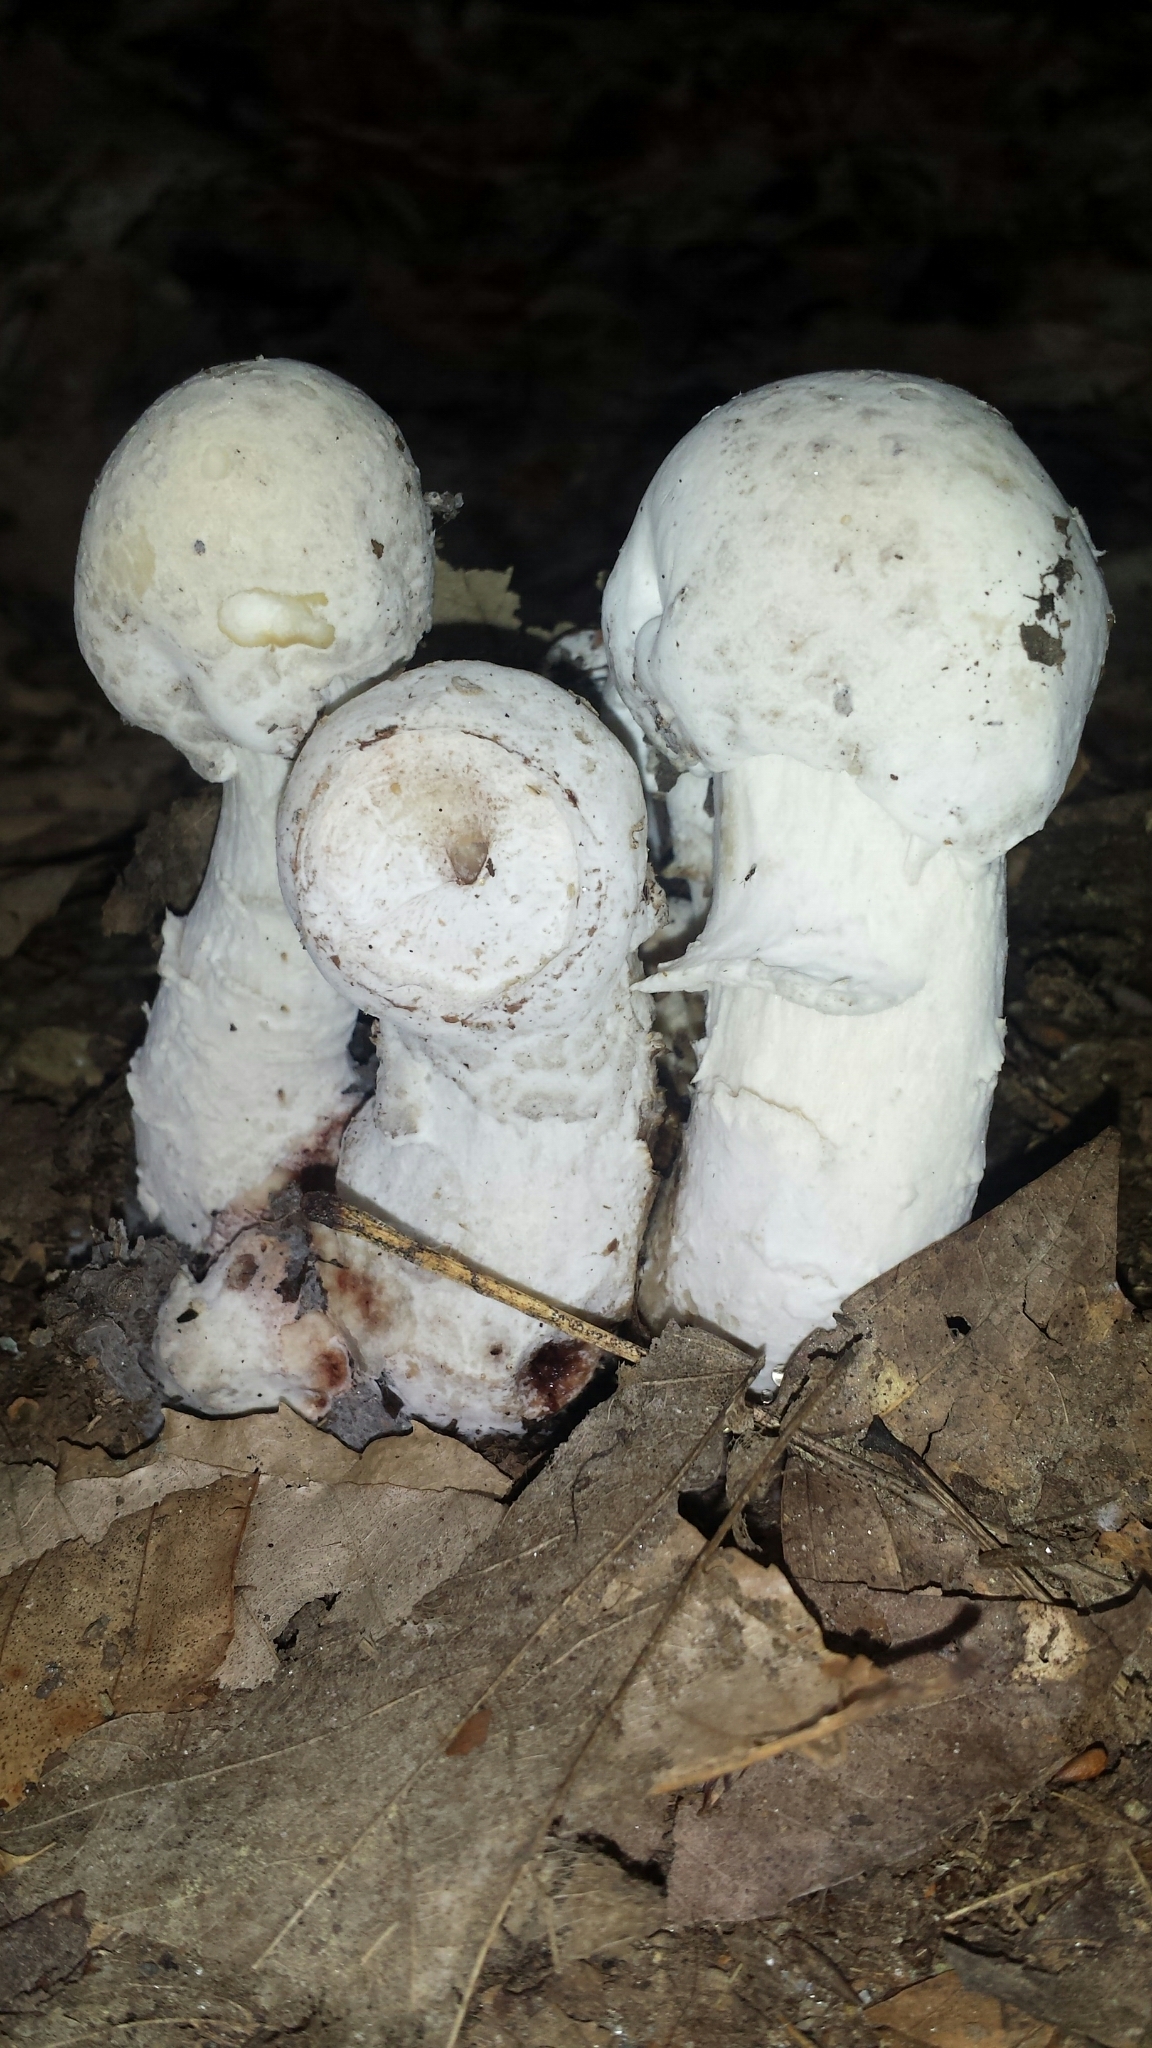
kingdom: Fungi
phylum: Ascomycota
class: Sordariomycetes
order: Hypocreales
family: Hypocreaceae
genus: Hypomyces
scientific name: Hypomyces hyalinus
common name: Amanita mold
